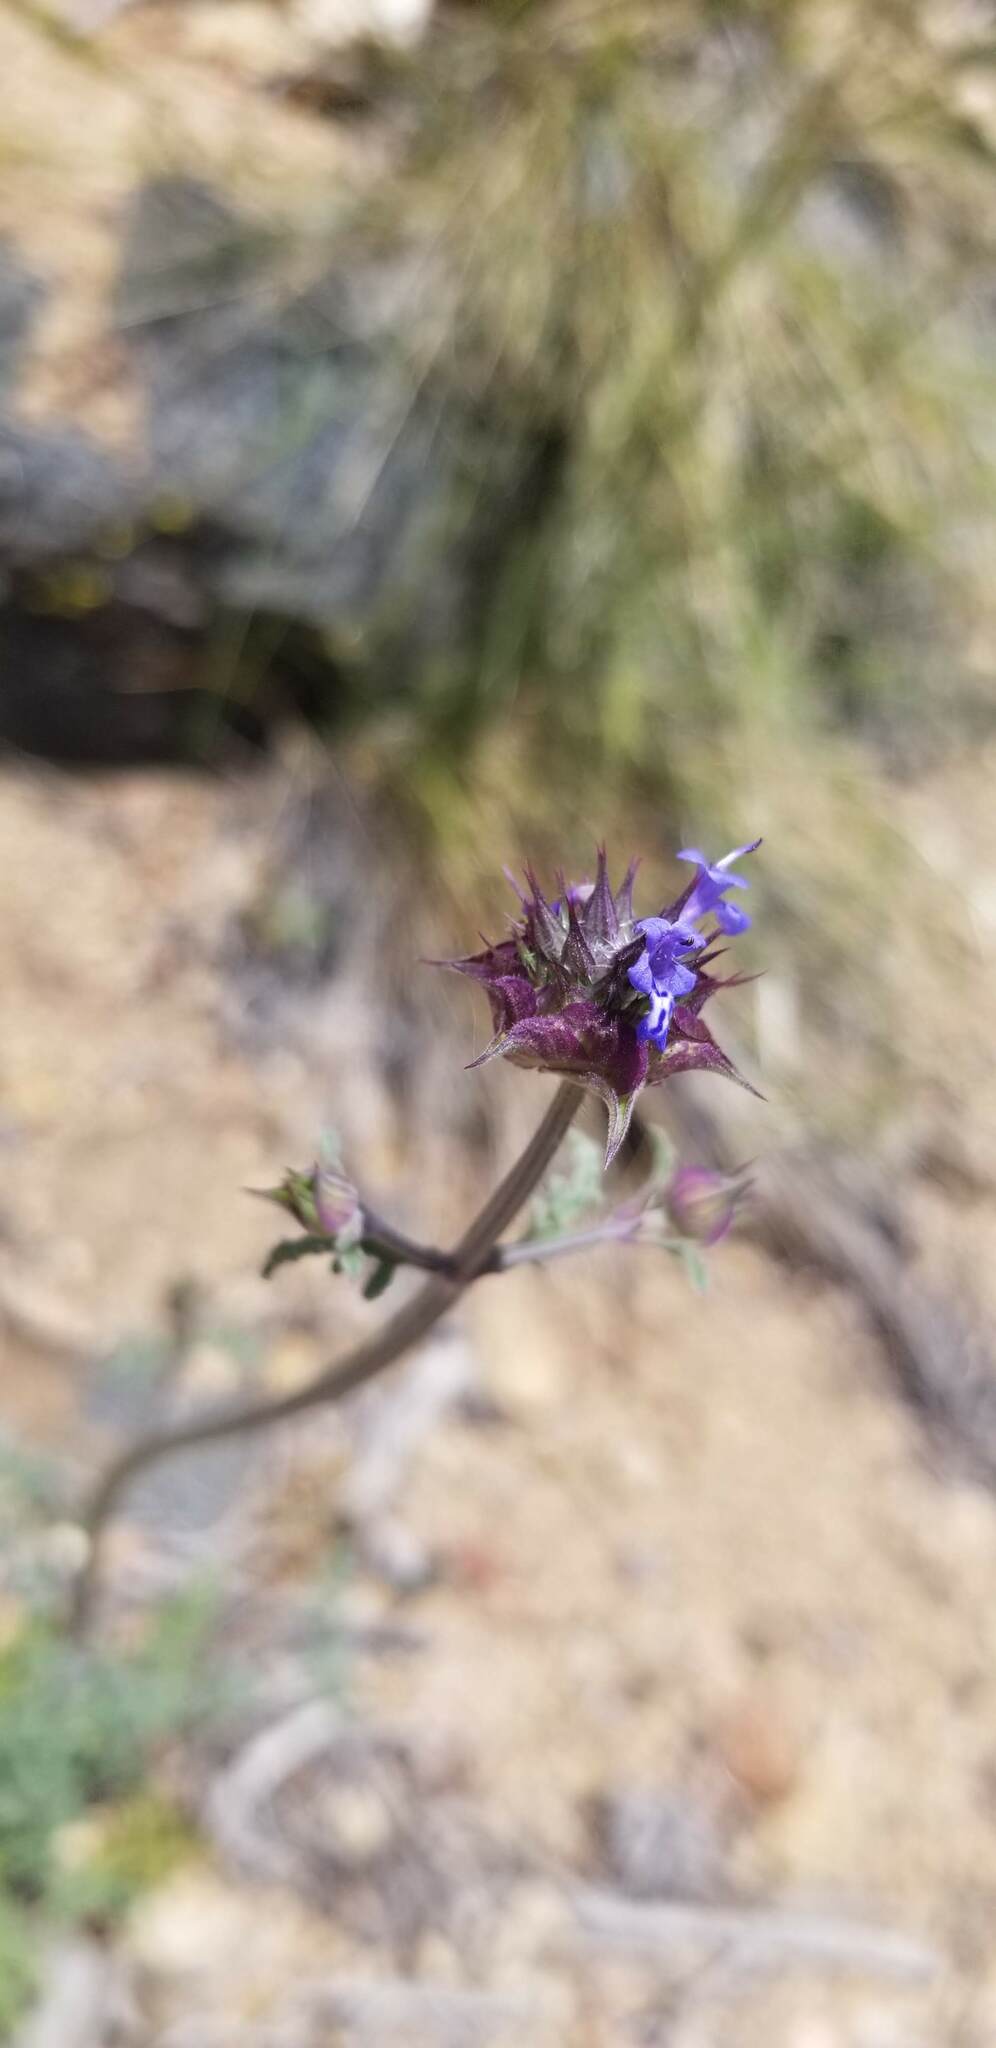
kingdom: Plantae
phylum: Tracheophyta
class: Magnoliopsida
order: Lamiales
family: Lamiaceae
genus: Salvia
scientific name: Salvia columbariae
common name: Chia
